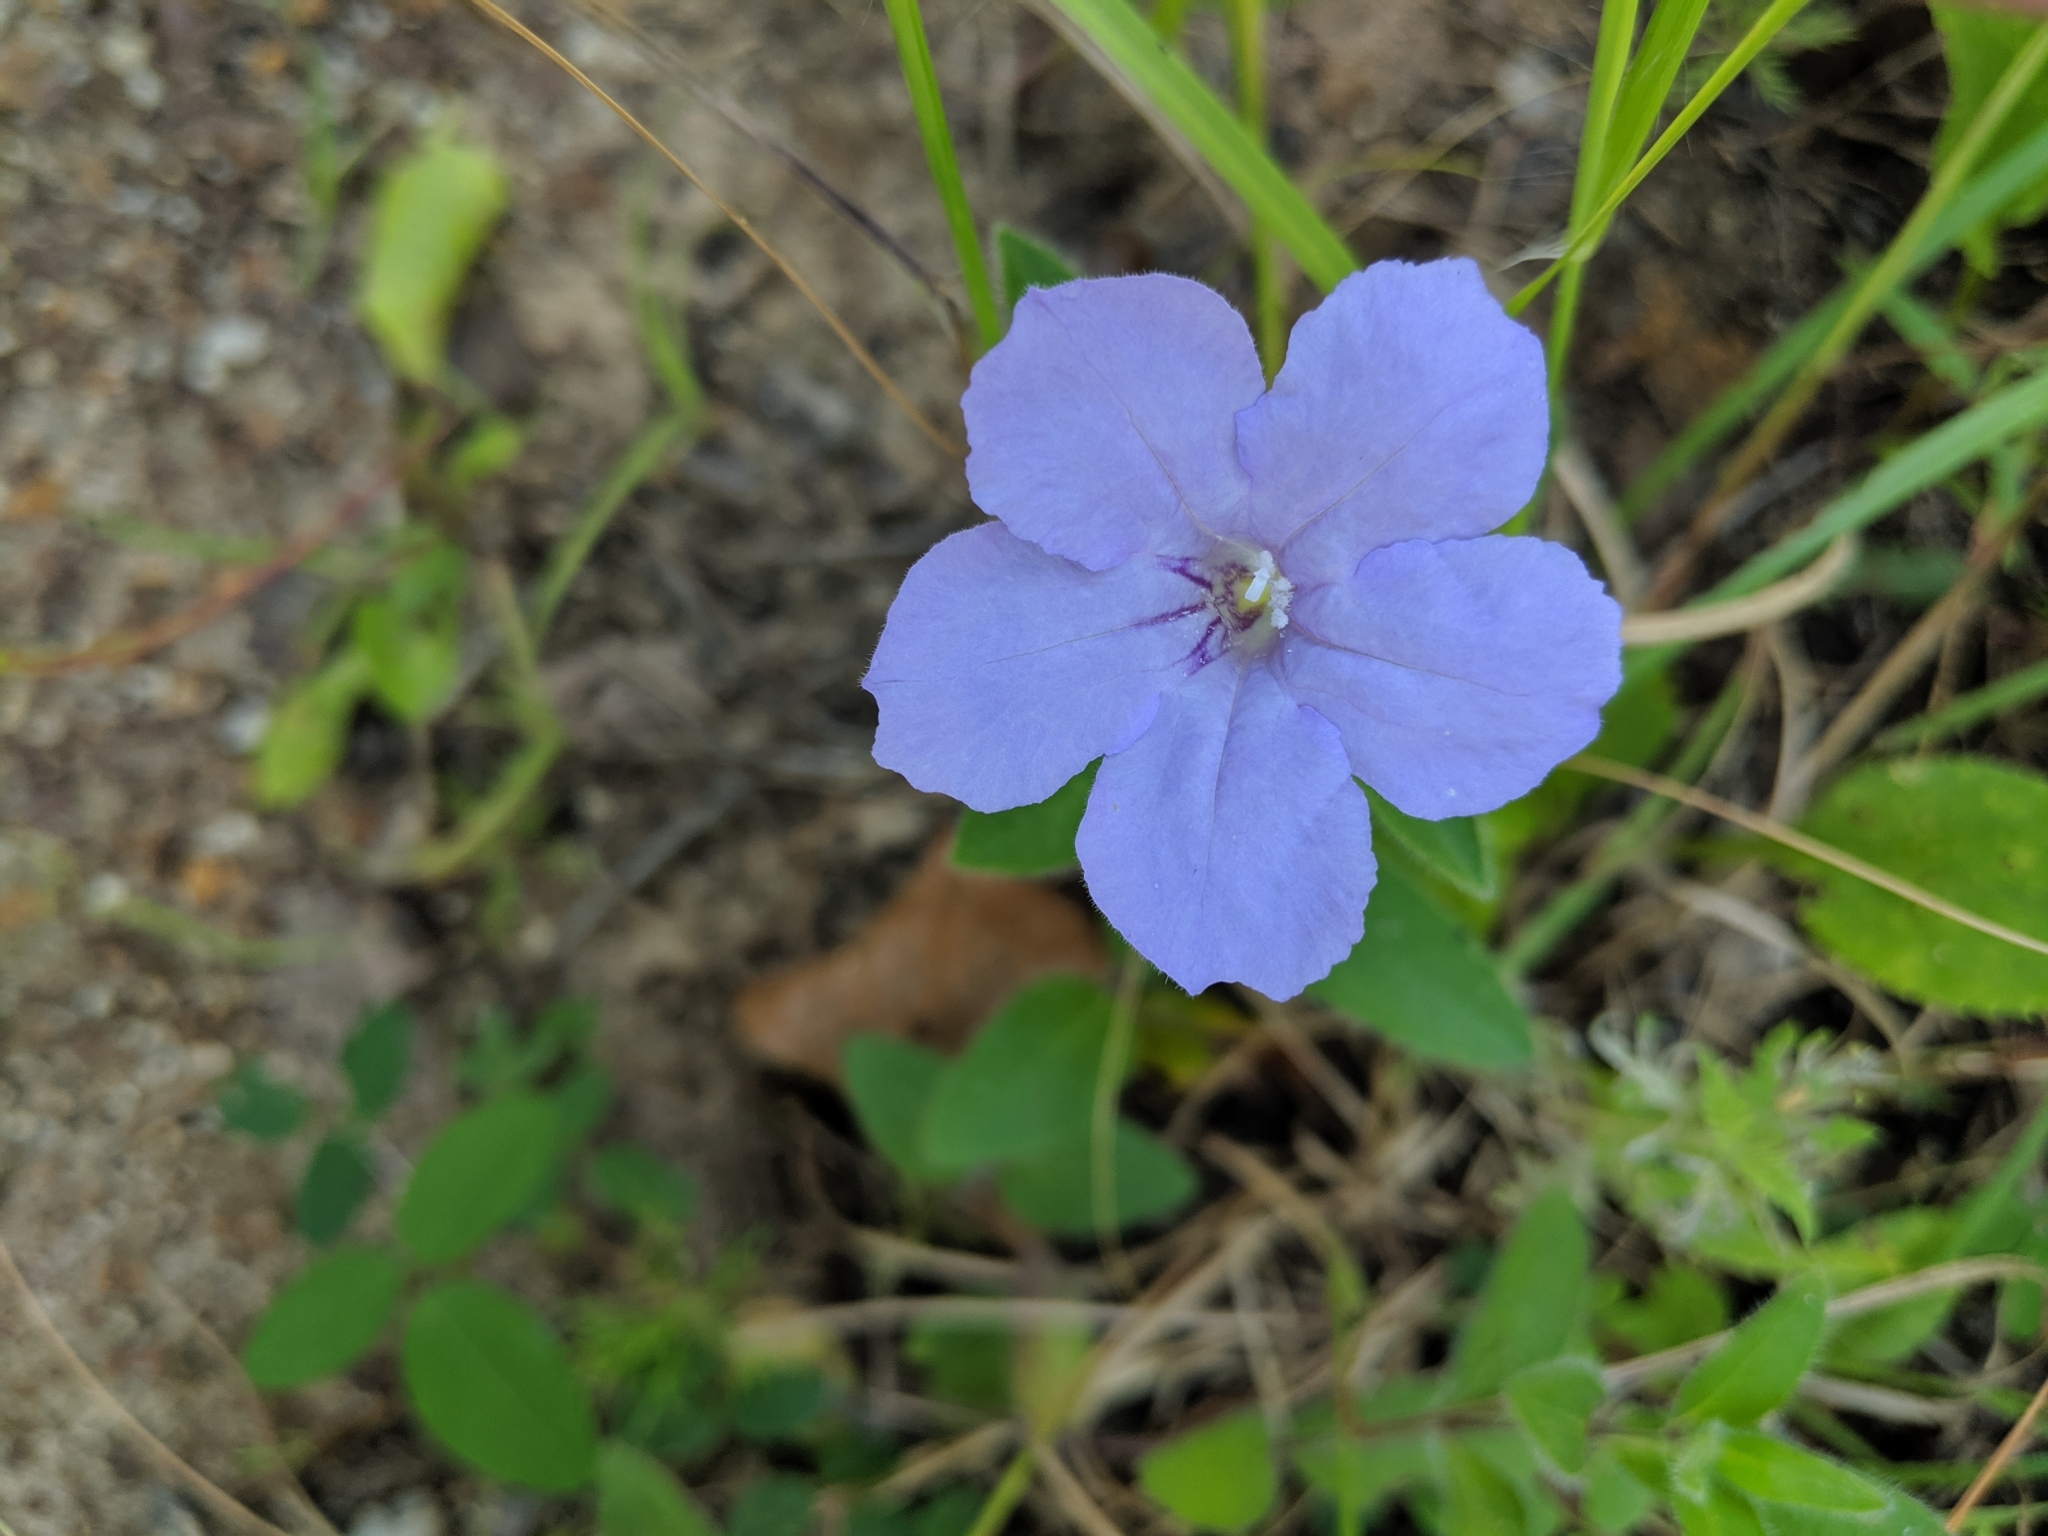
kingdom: Plantae
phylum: Tracheophyta
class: Magnoliopsida
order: Lamiales
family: Acanthaceae
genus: Ruellia
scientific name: Ruellia humilis
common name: Fringe-leaf ruellia
